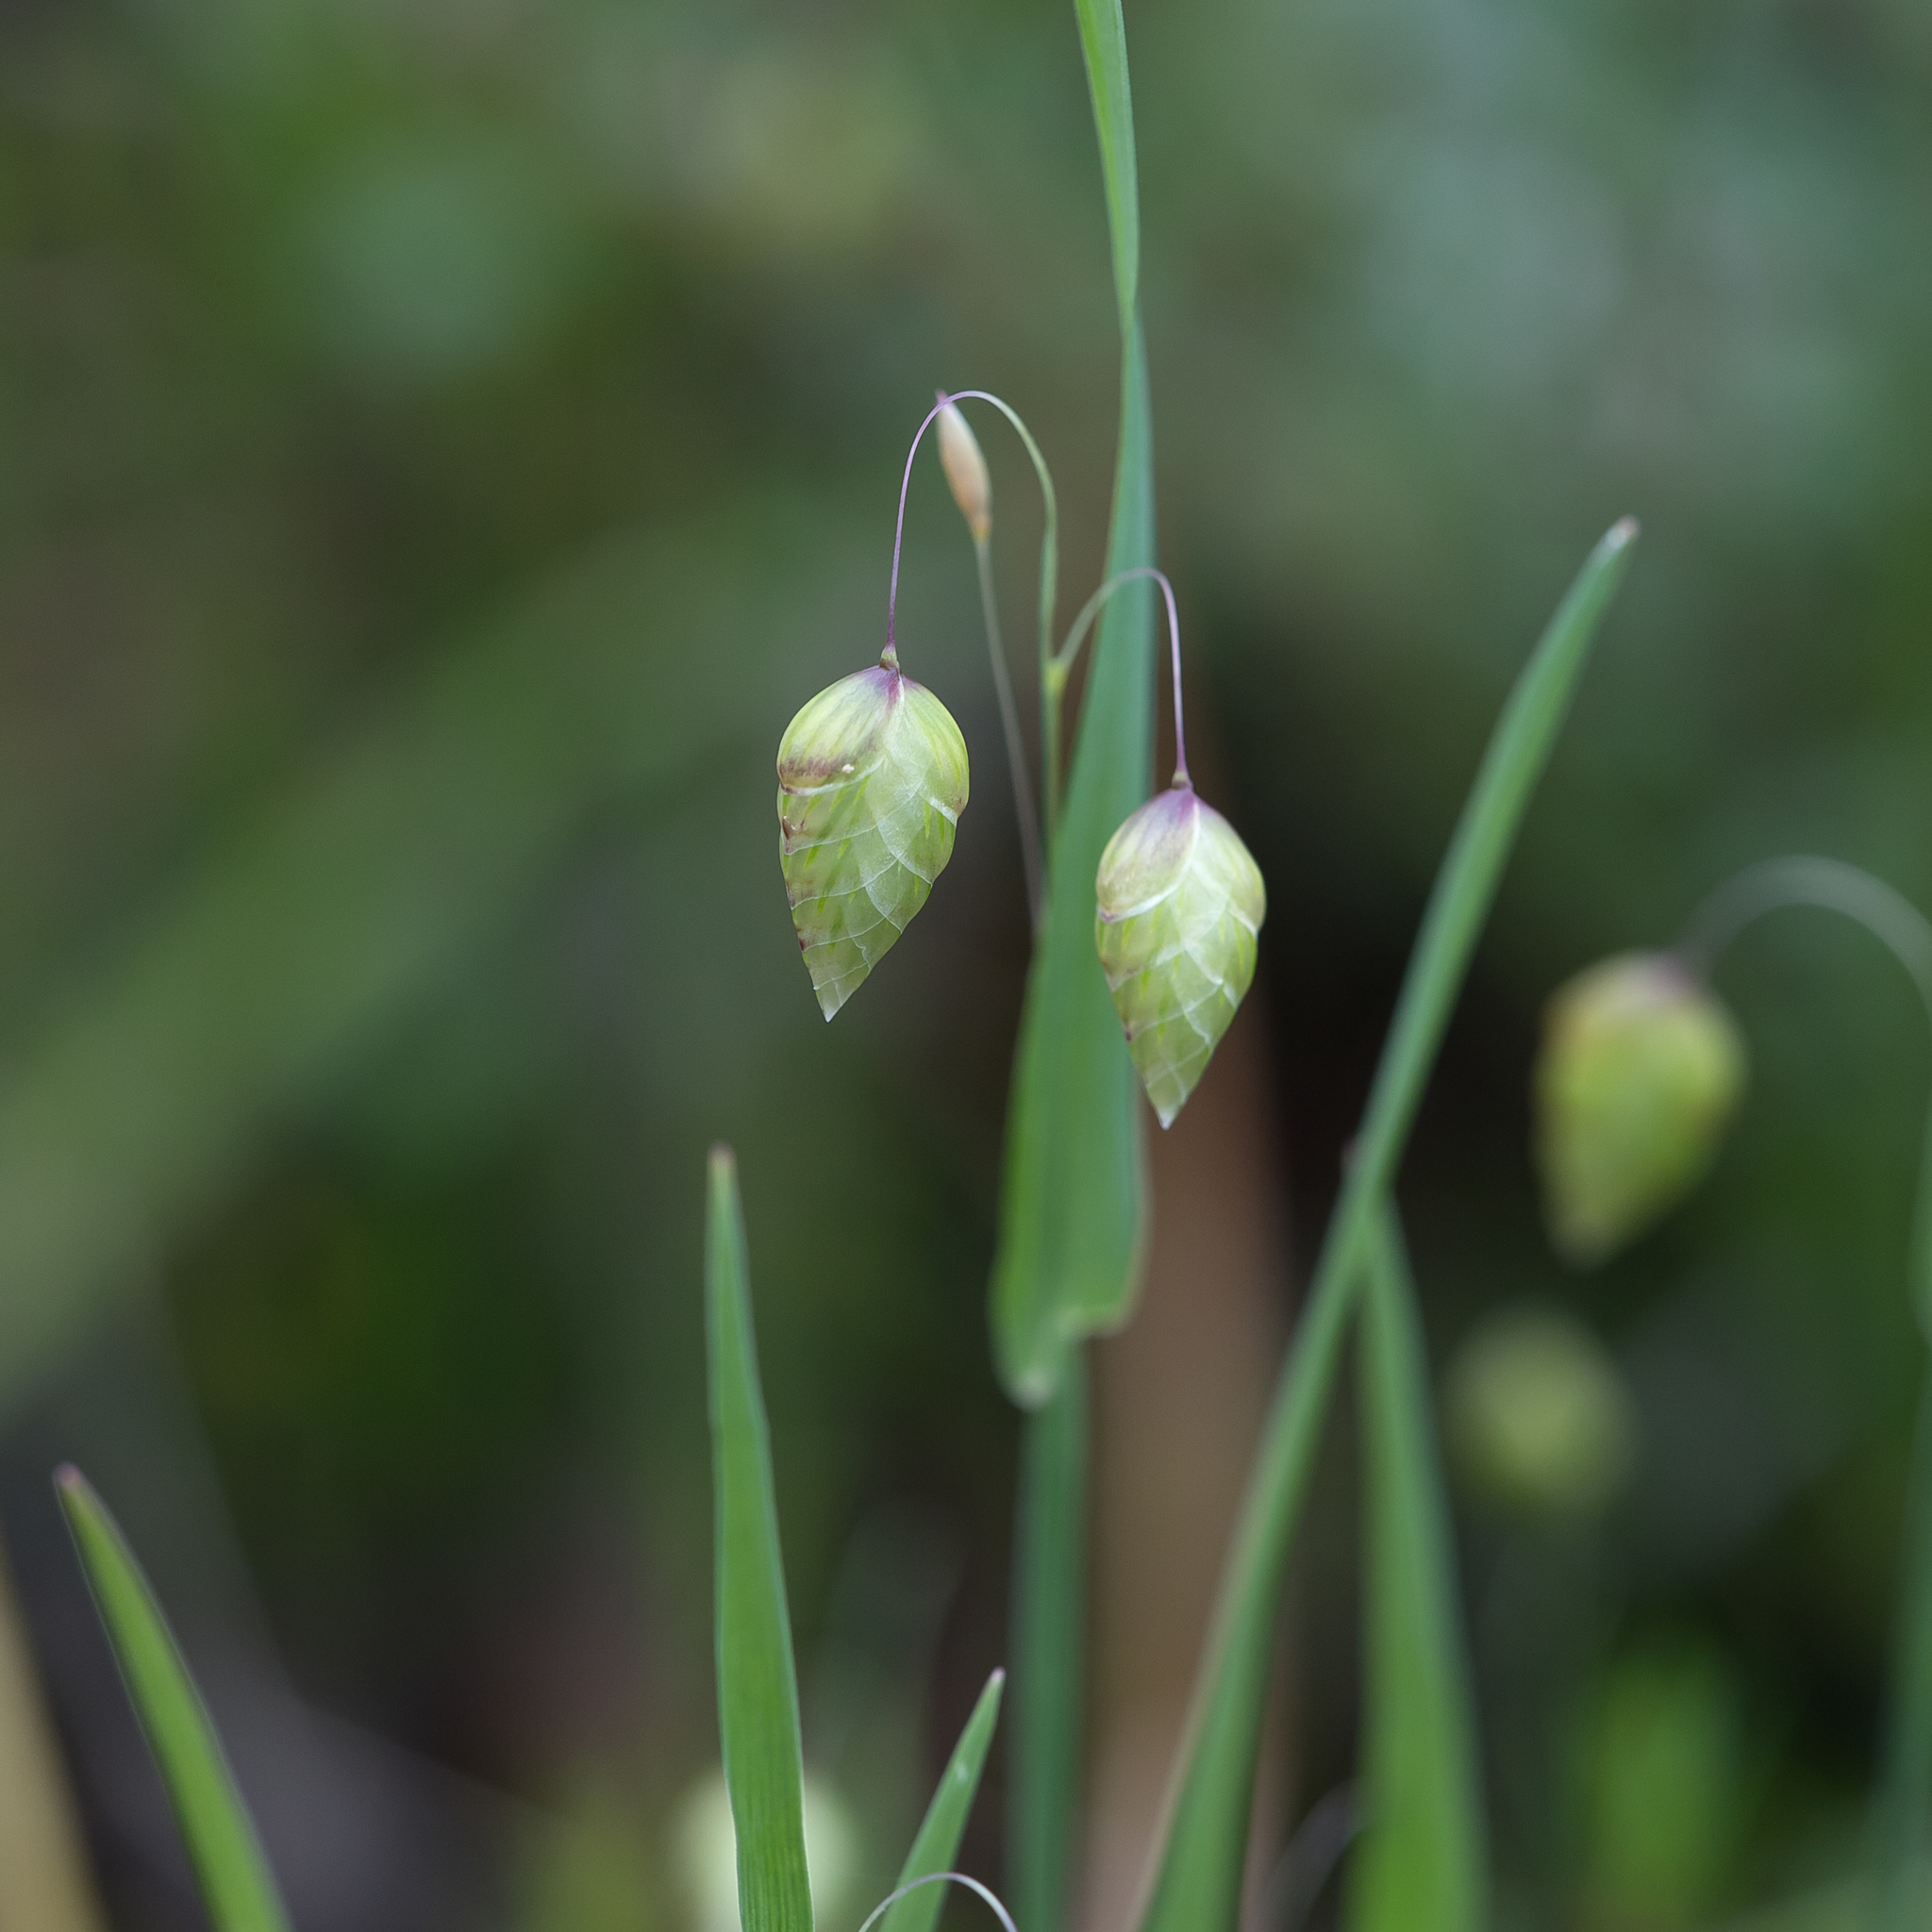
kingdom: Plantae
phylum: Tracheophyta
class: Liliopsida
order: Poales
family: Poaceae
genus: Briza
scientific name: Briza maxima
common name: Big quakinggrass
